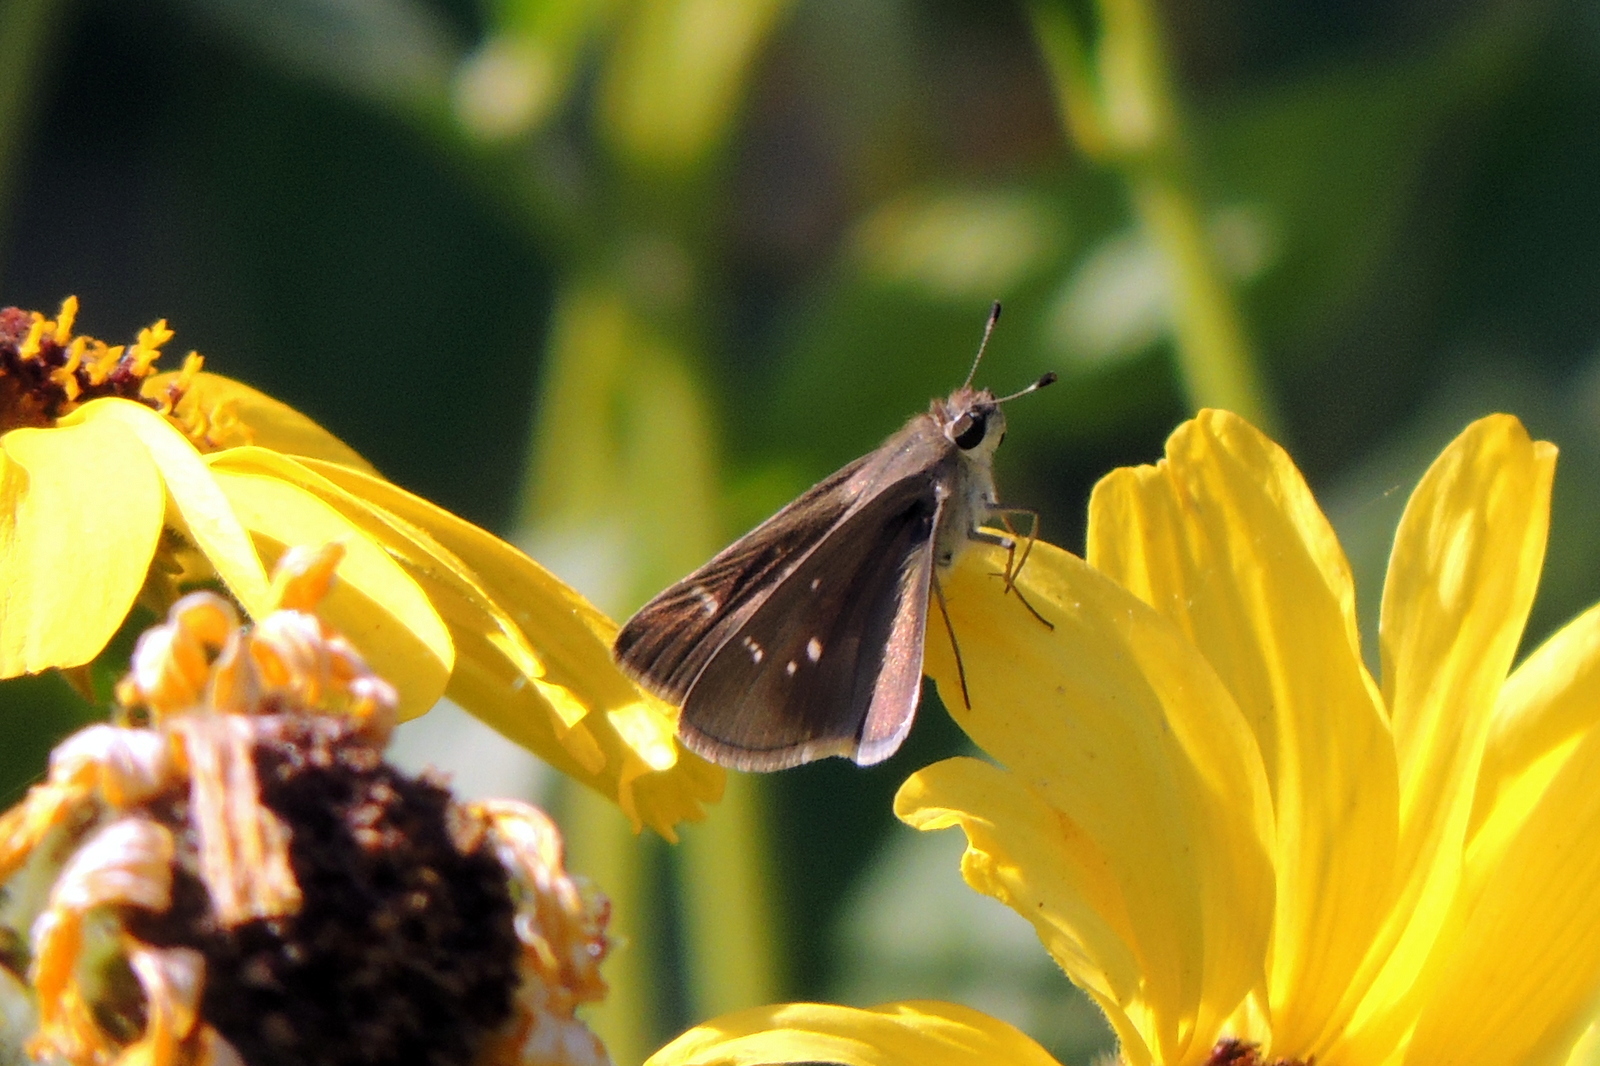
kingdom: Animalia
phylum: Arthropoda
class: Insecta
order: Lepidoptera
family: Hesperiidae
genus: Lerodea
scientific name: Lerodea eufala
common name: Eufala skipper
